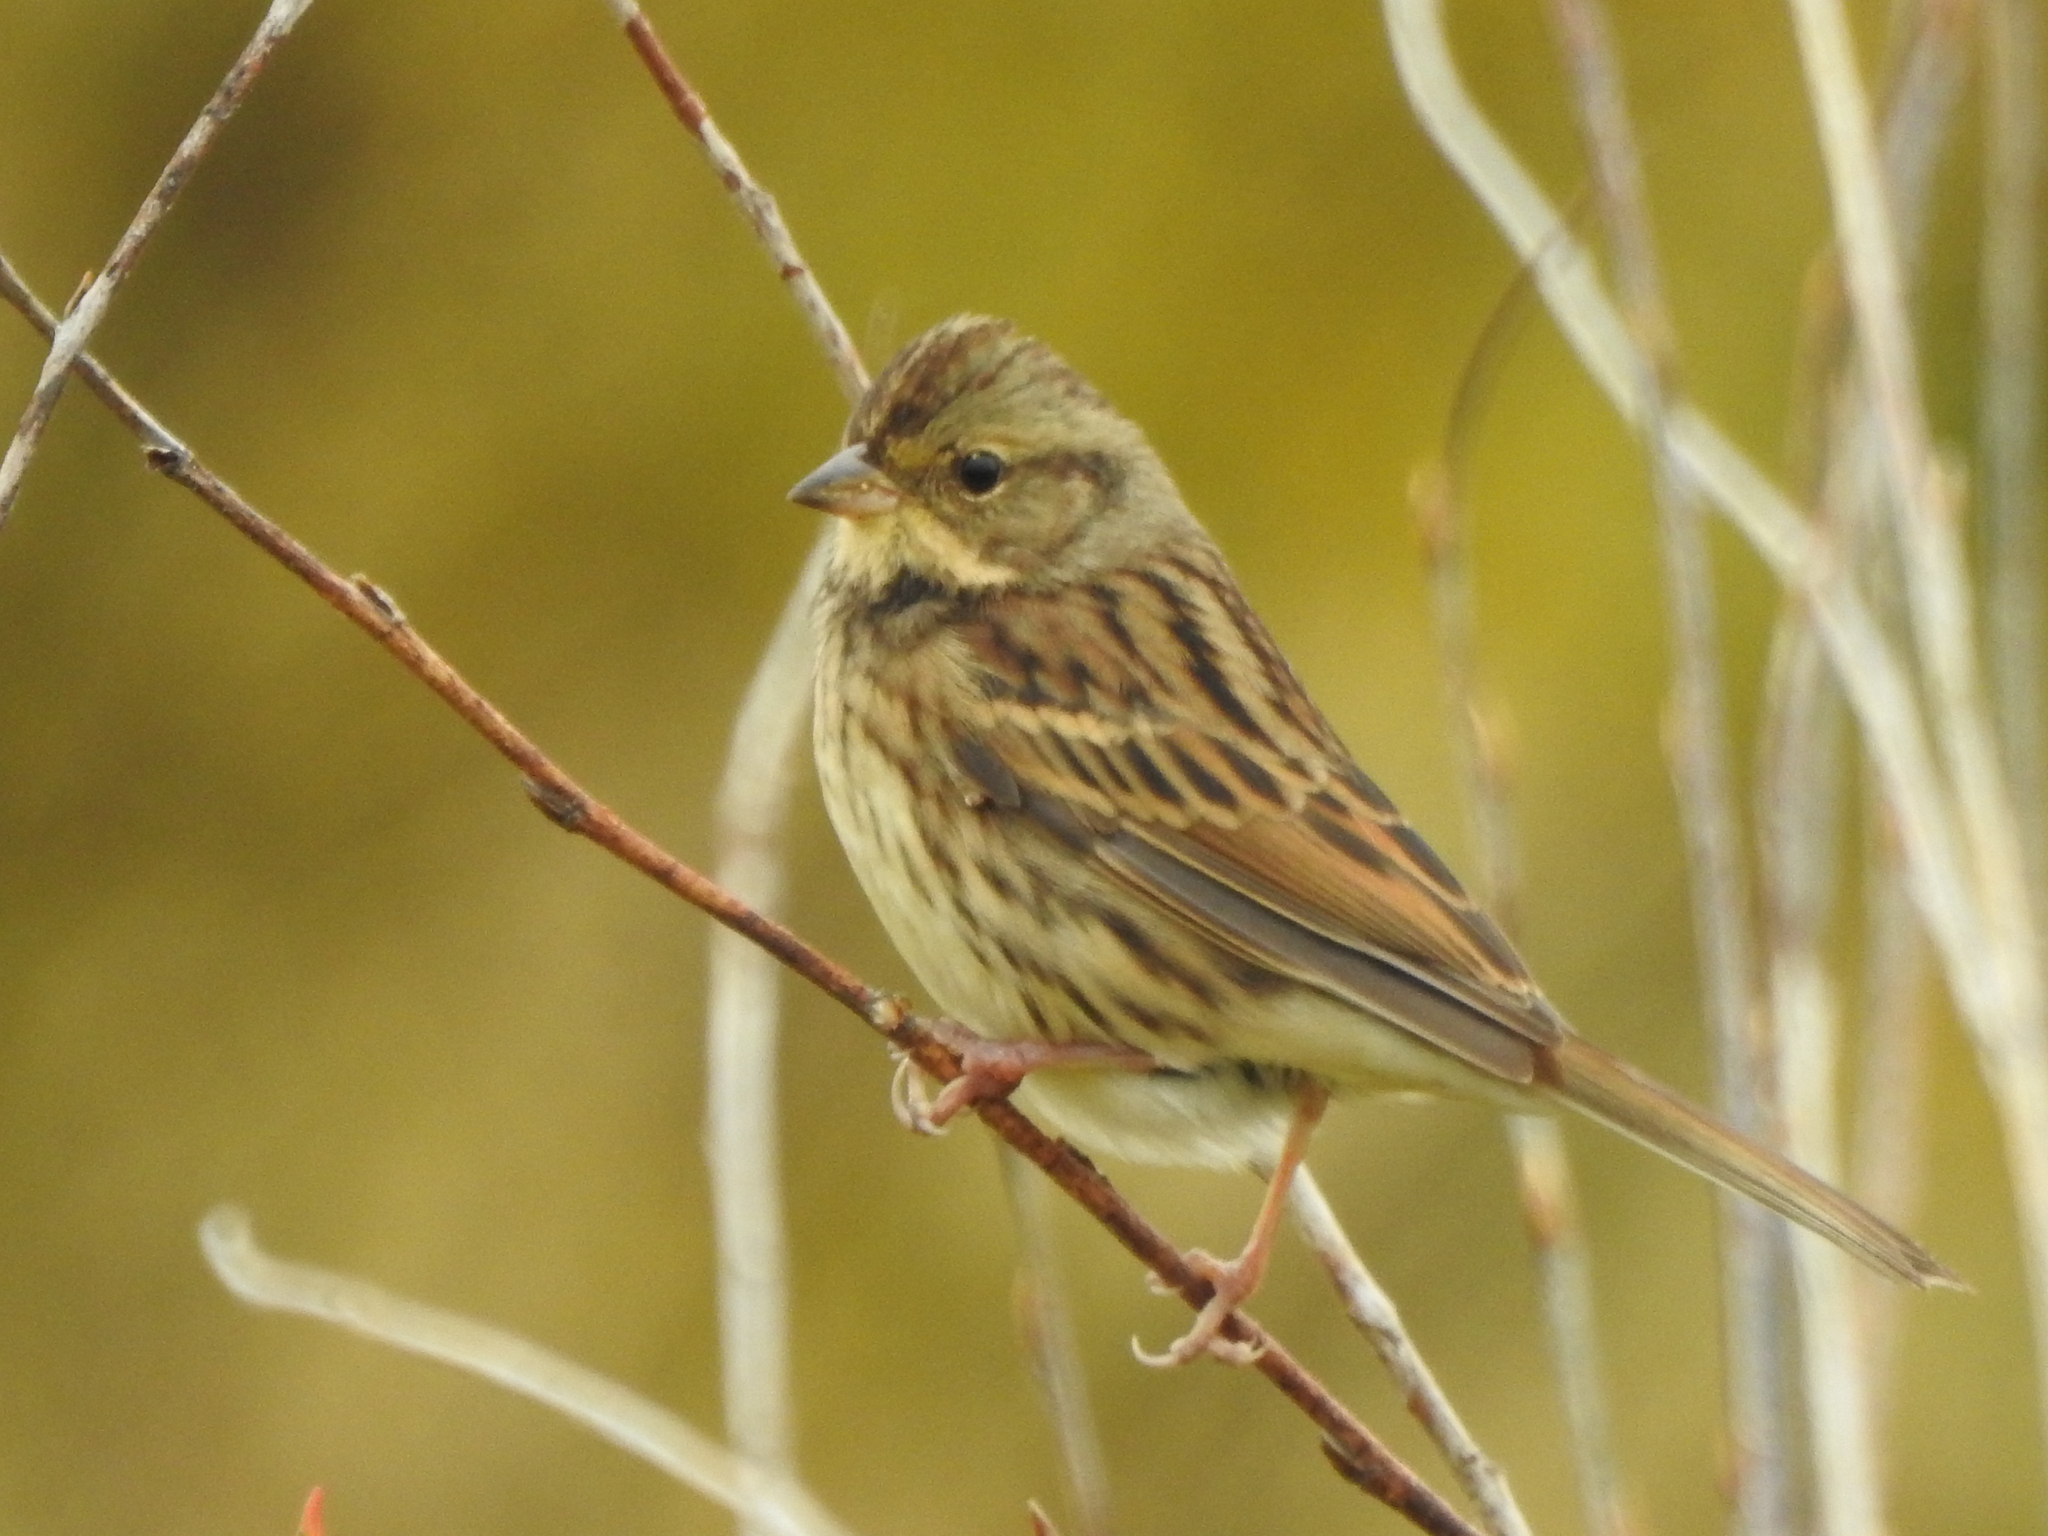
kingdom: Animalia
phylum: Chordata
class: Aves
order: Passeriformes
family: Emberizidae
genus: Emberiza
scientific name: Emberiza spodocephala
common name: Black-faced bunting
